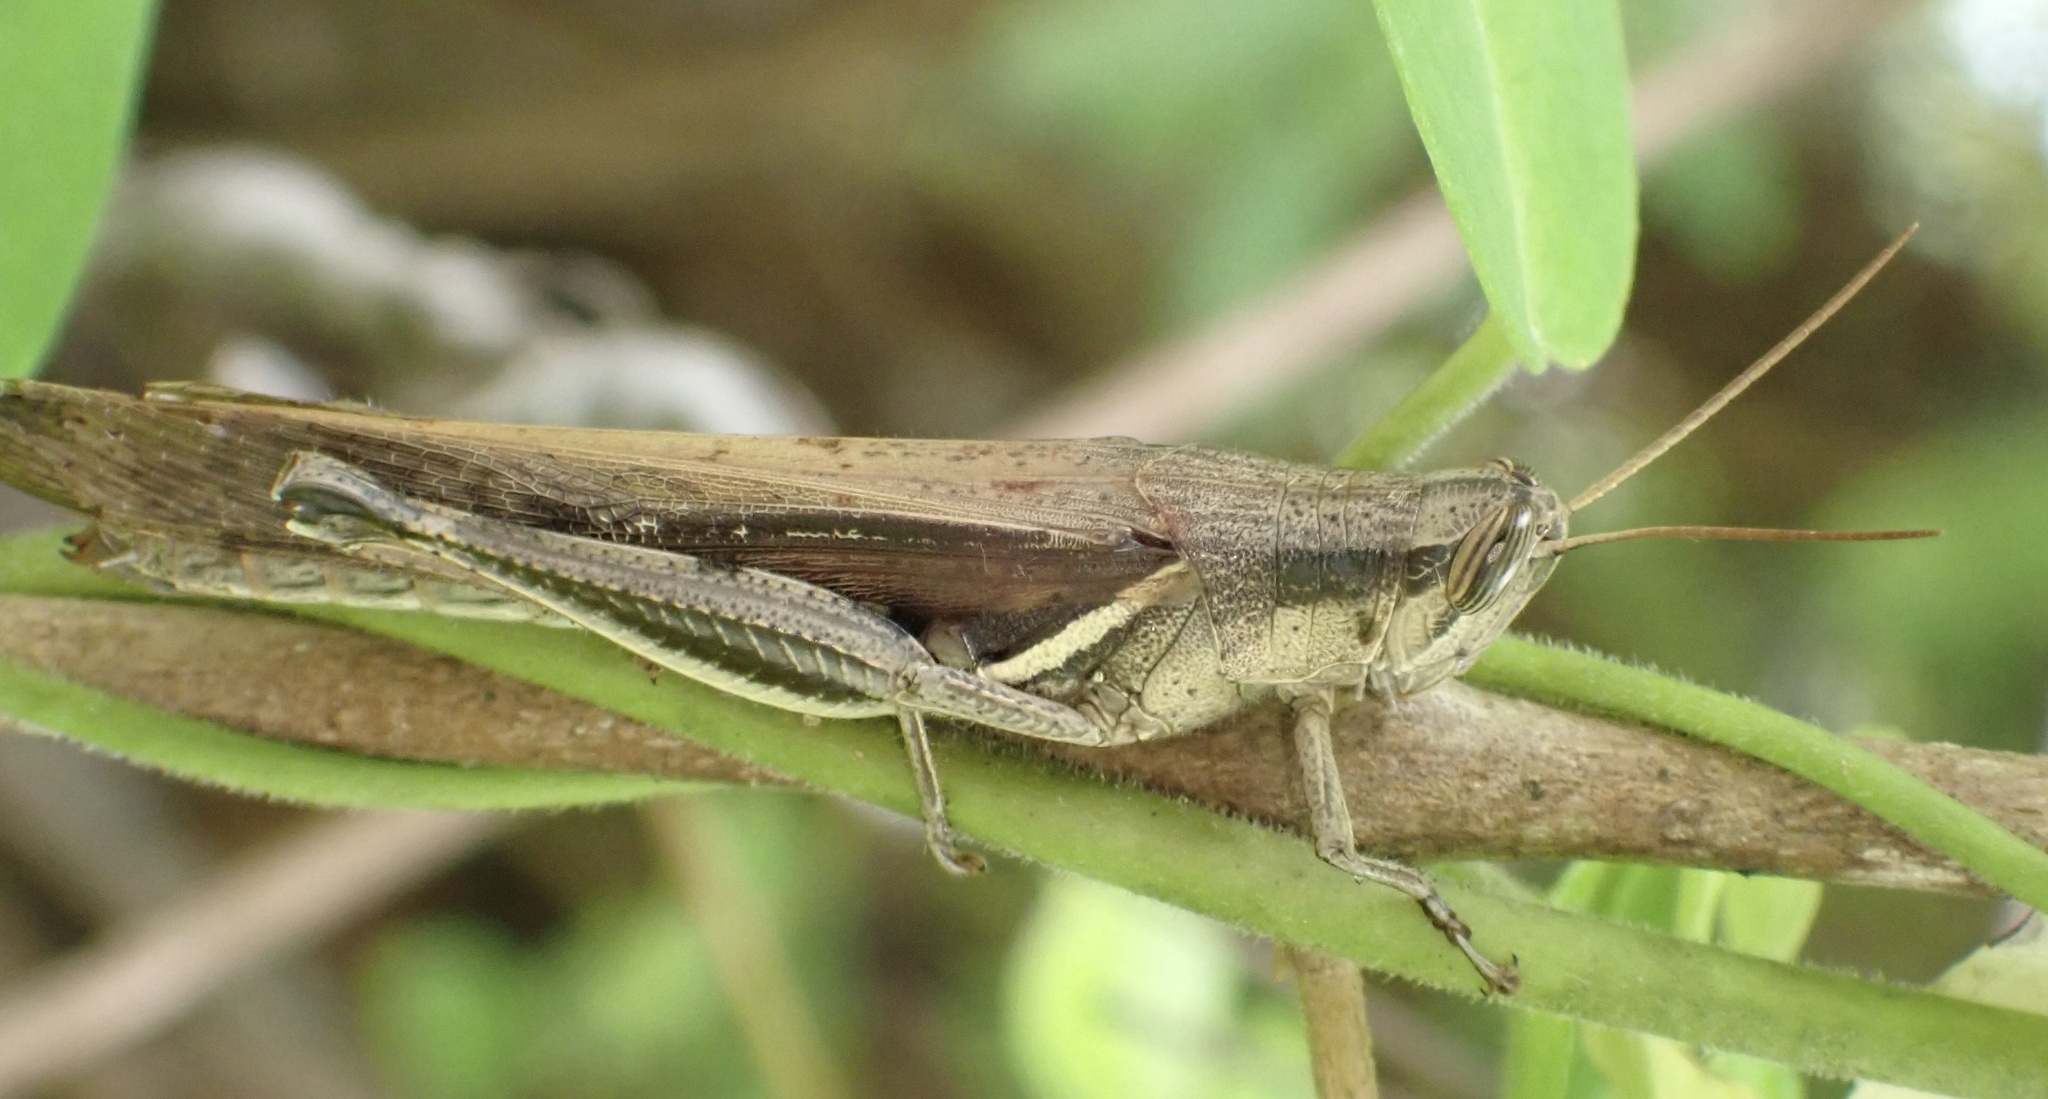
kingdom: Animalia
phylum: Arthropoda
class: Insecta
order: Orthoptera
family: Acrididae
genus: Stenocatantops
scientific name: Stenocatantops splendens
